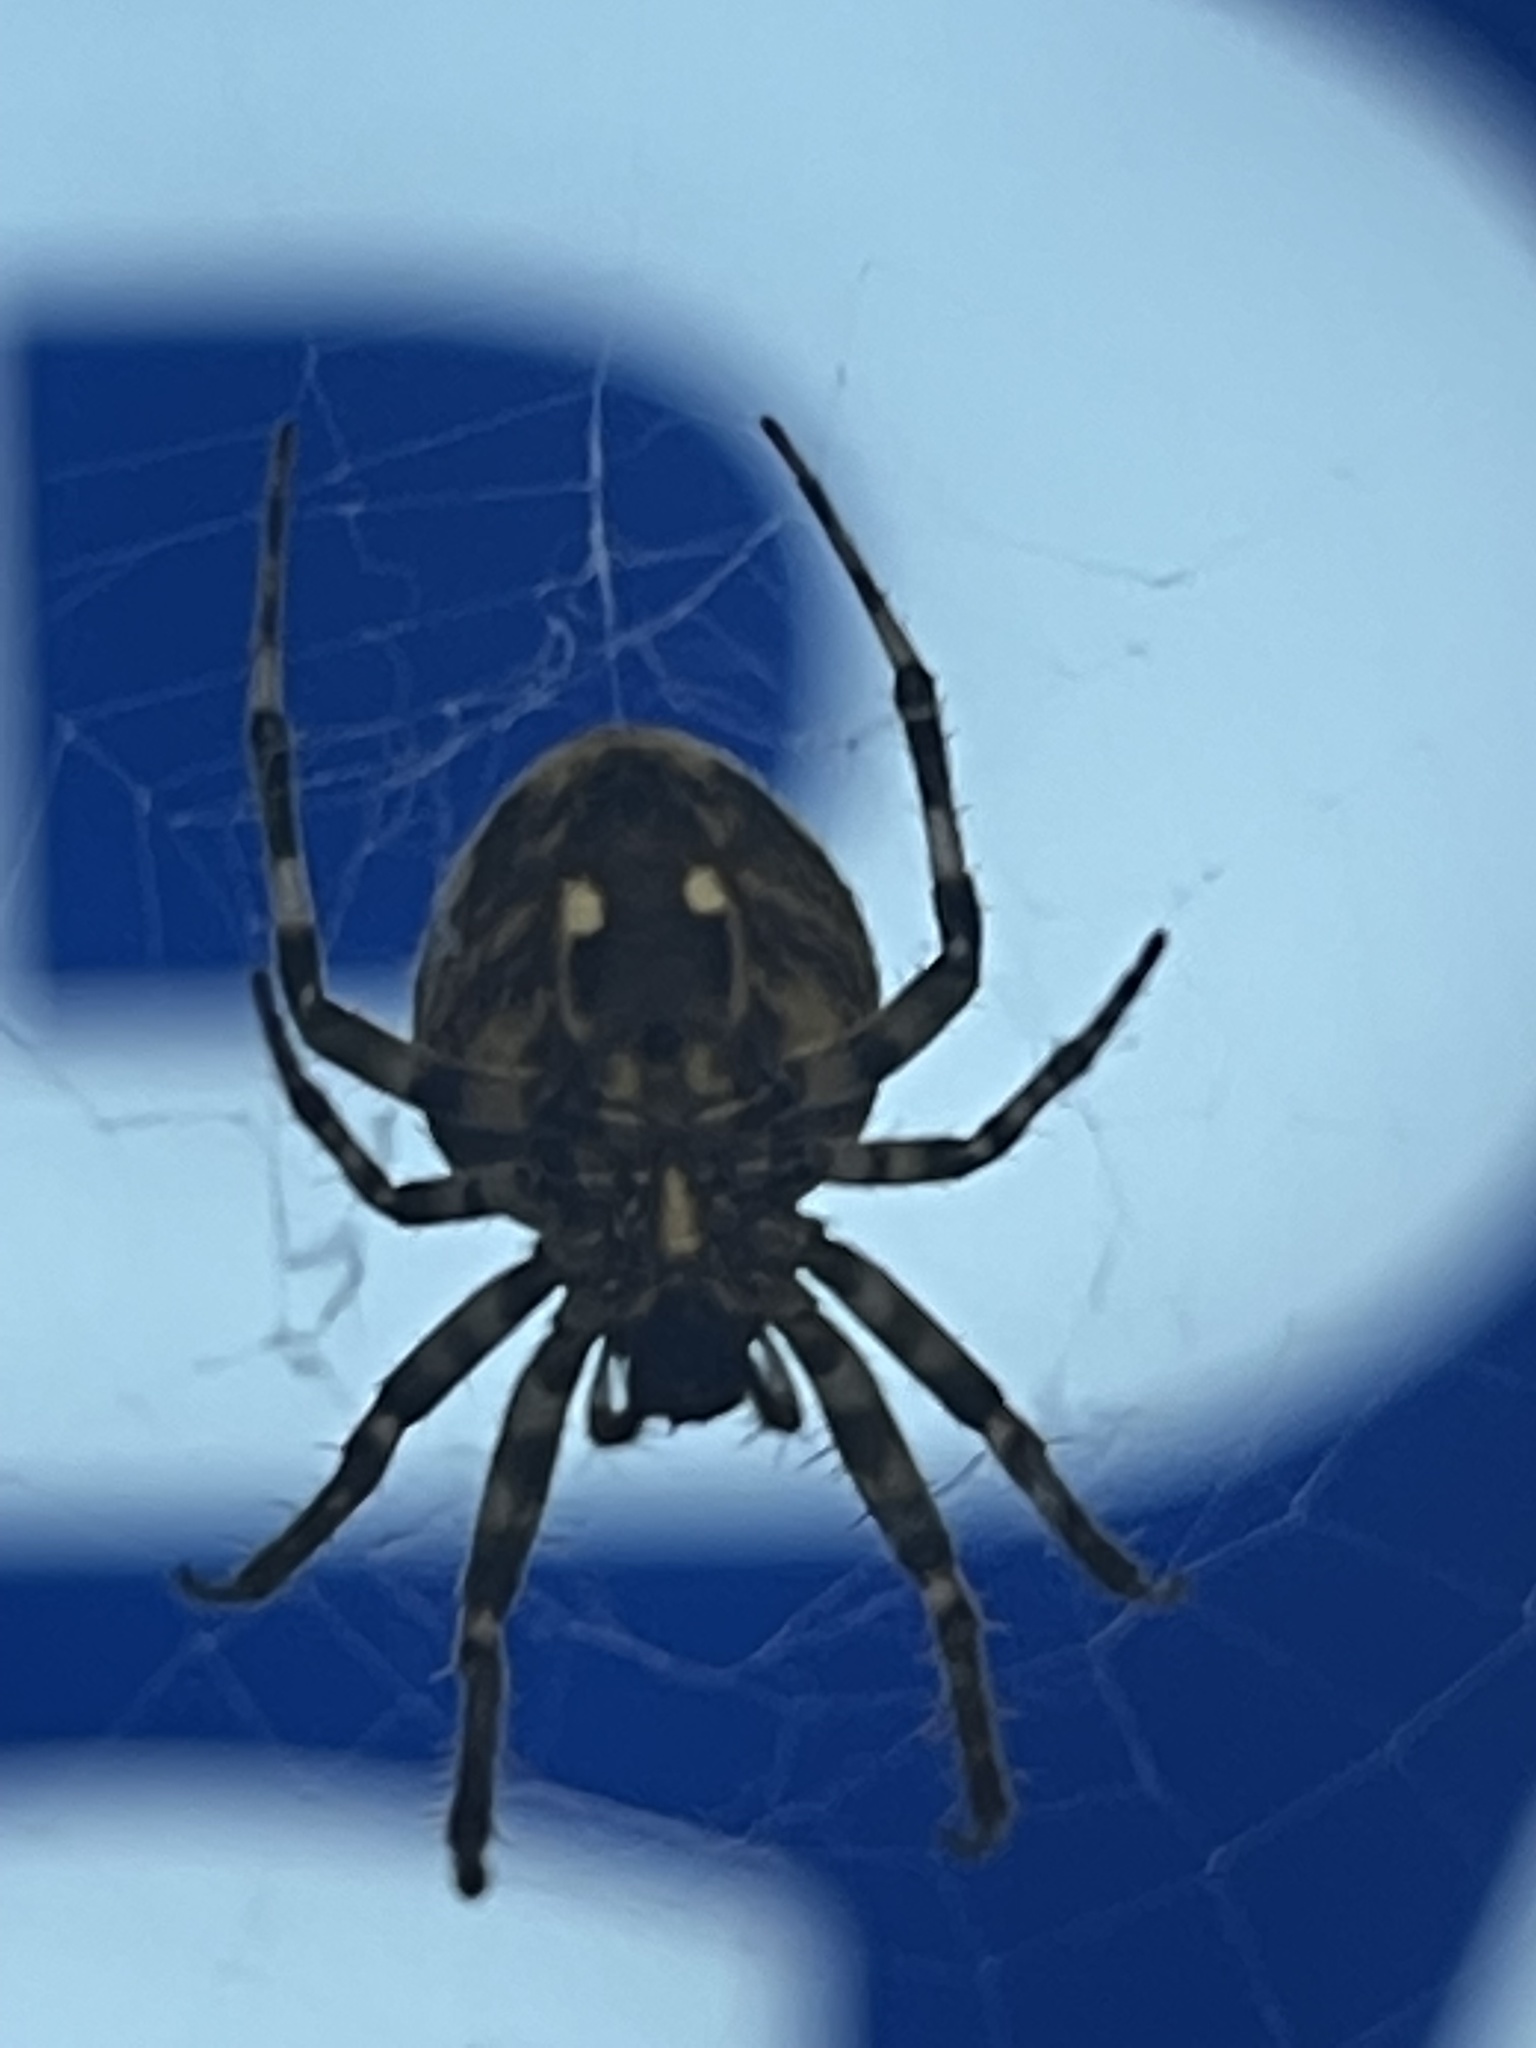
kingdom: Animalia
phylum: Arthropoda
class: Arachnida
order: Araneae
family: Araneidae
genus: Neoscona
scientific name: Neoscona nautica
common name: Orb weavers
